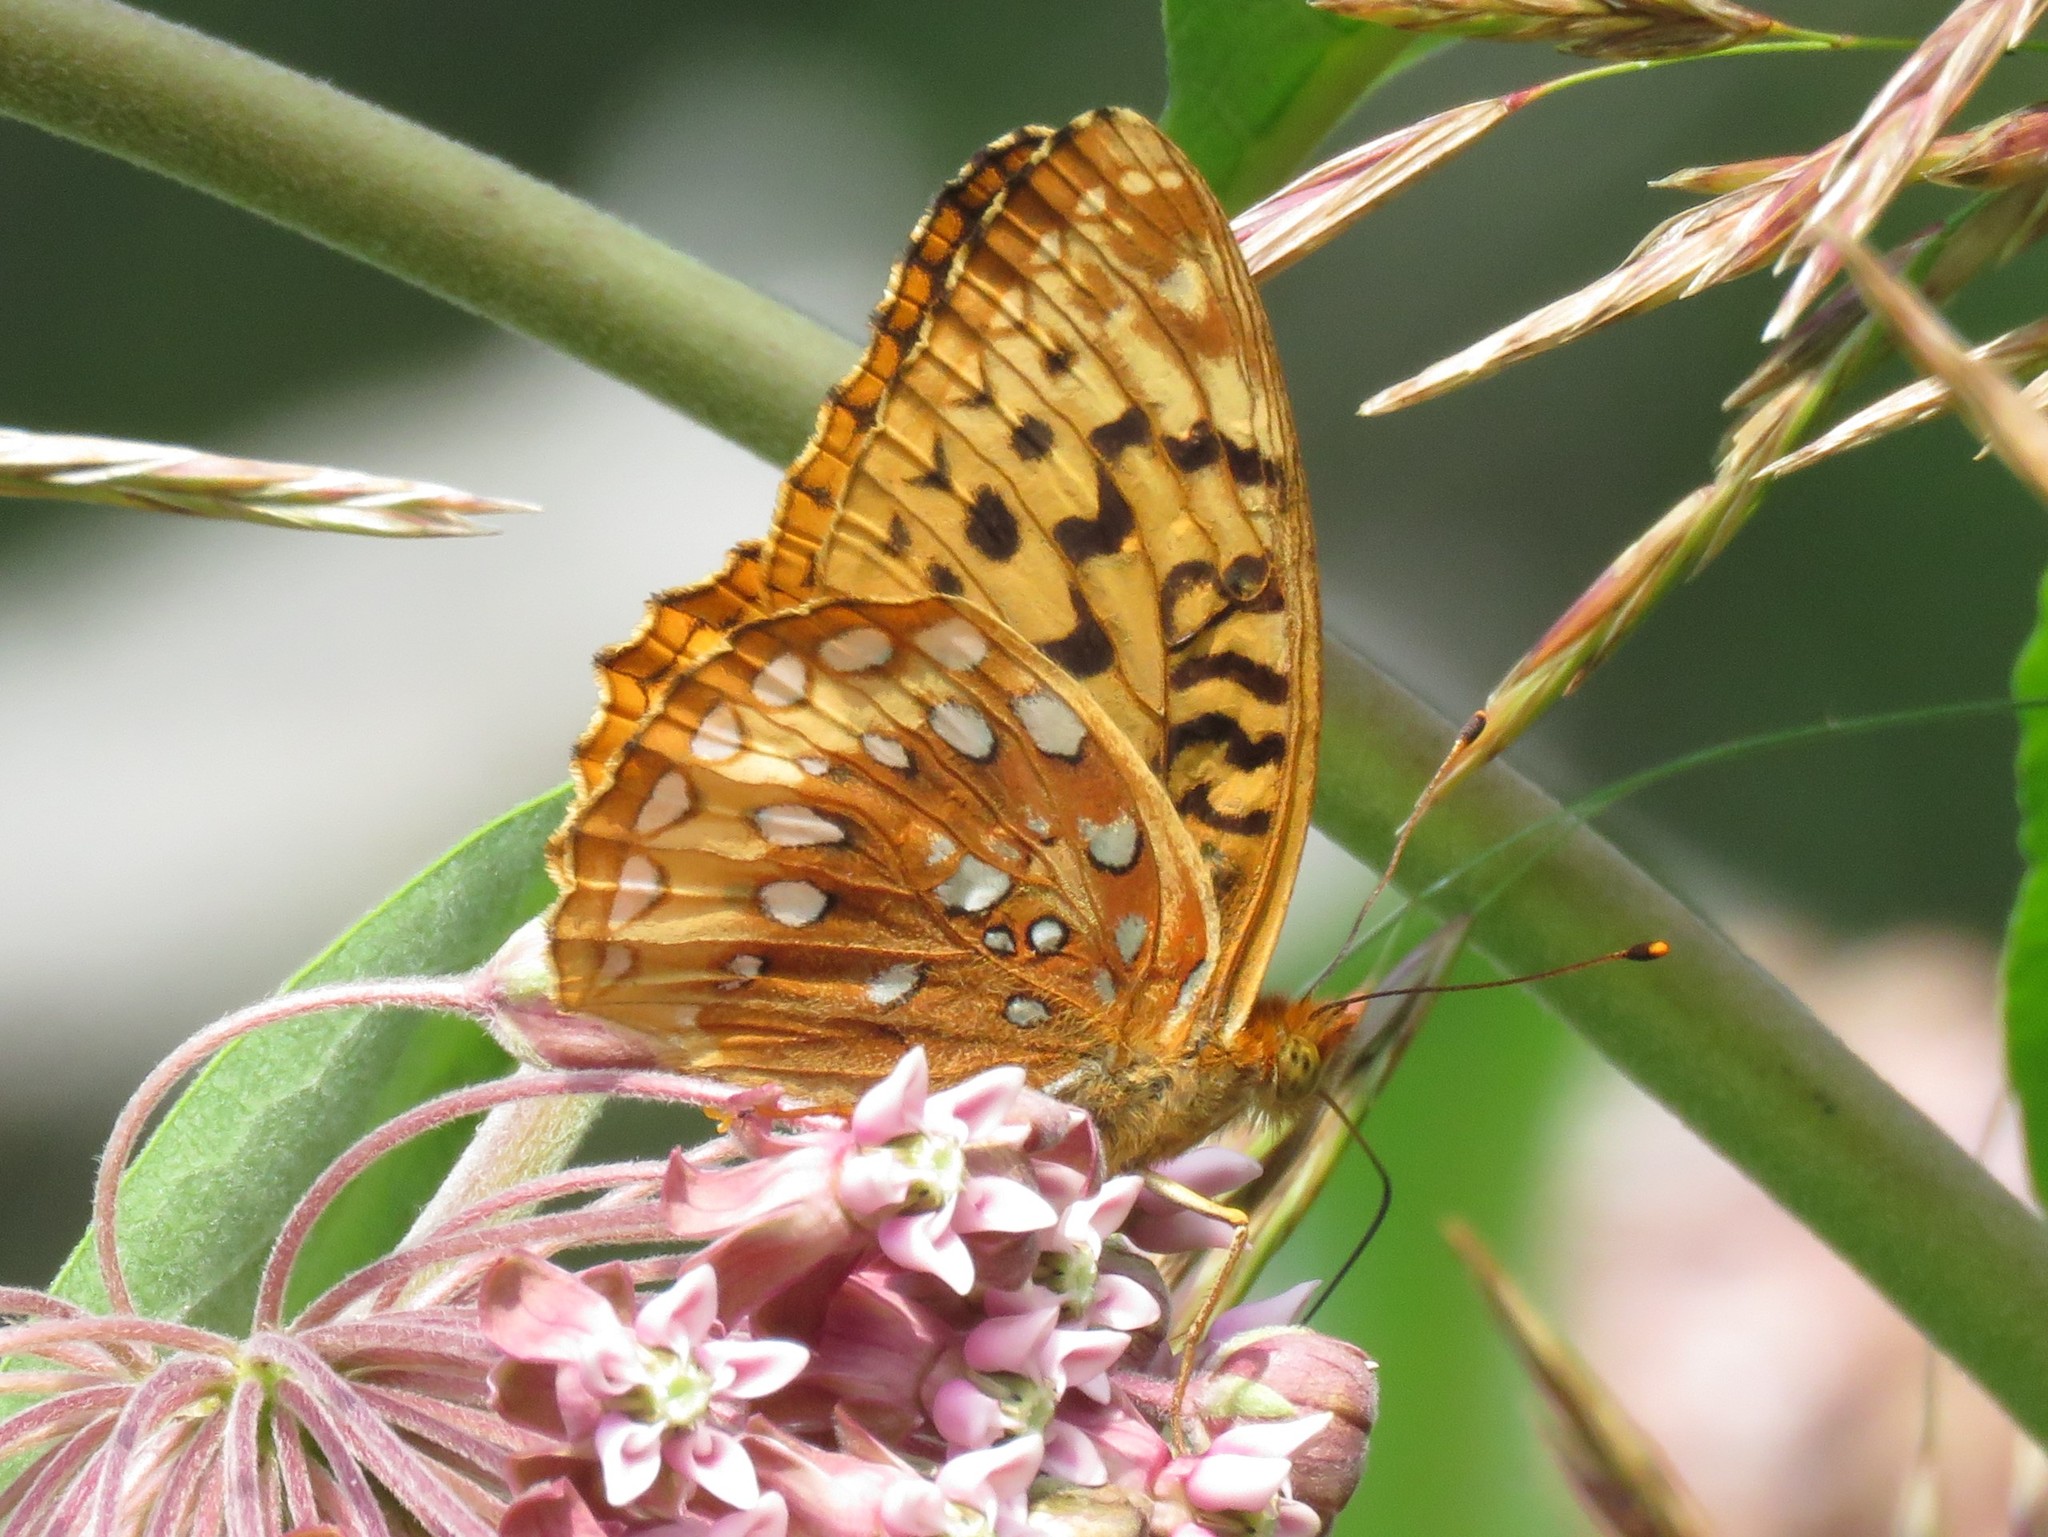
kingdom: Animalia
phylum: Arthropoda
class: Insecta
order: Lepidoptera
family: Nymphalidae
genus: Speyeria
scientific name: Speyeria cybele
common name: Great spangled fritillary
